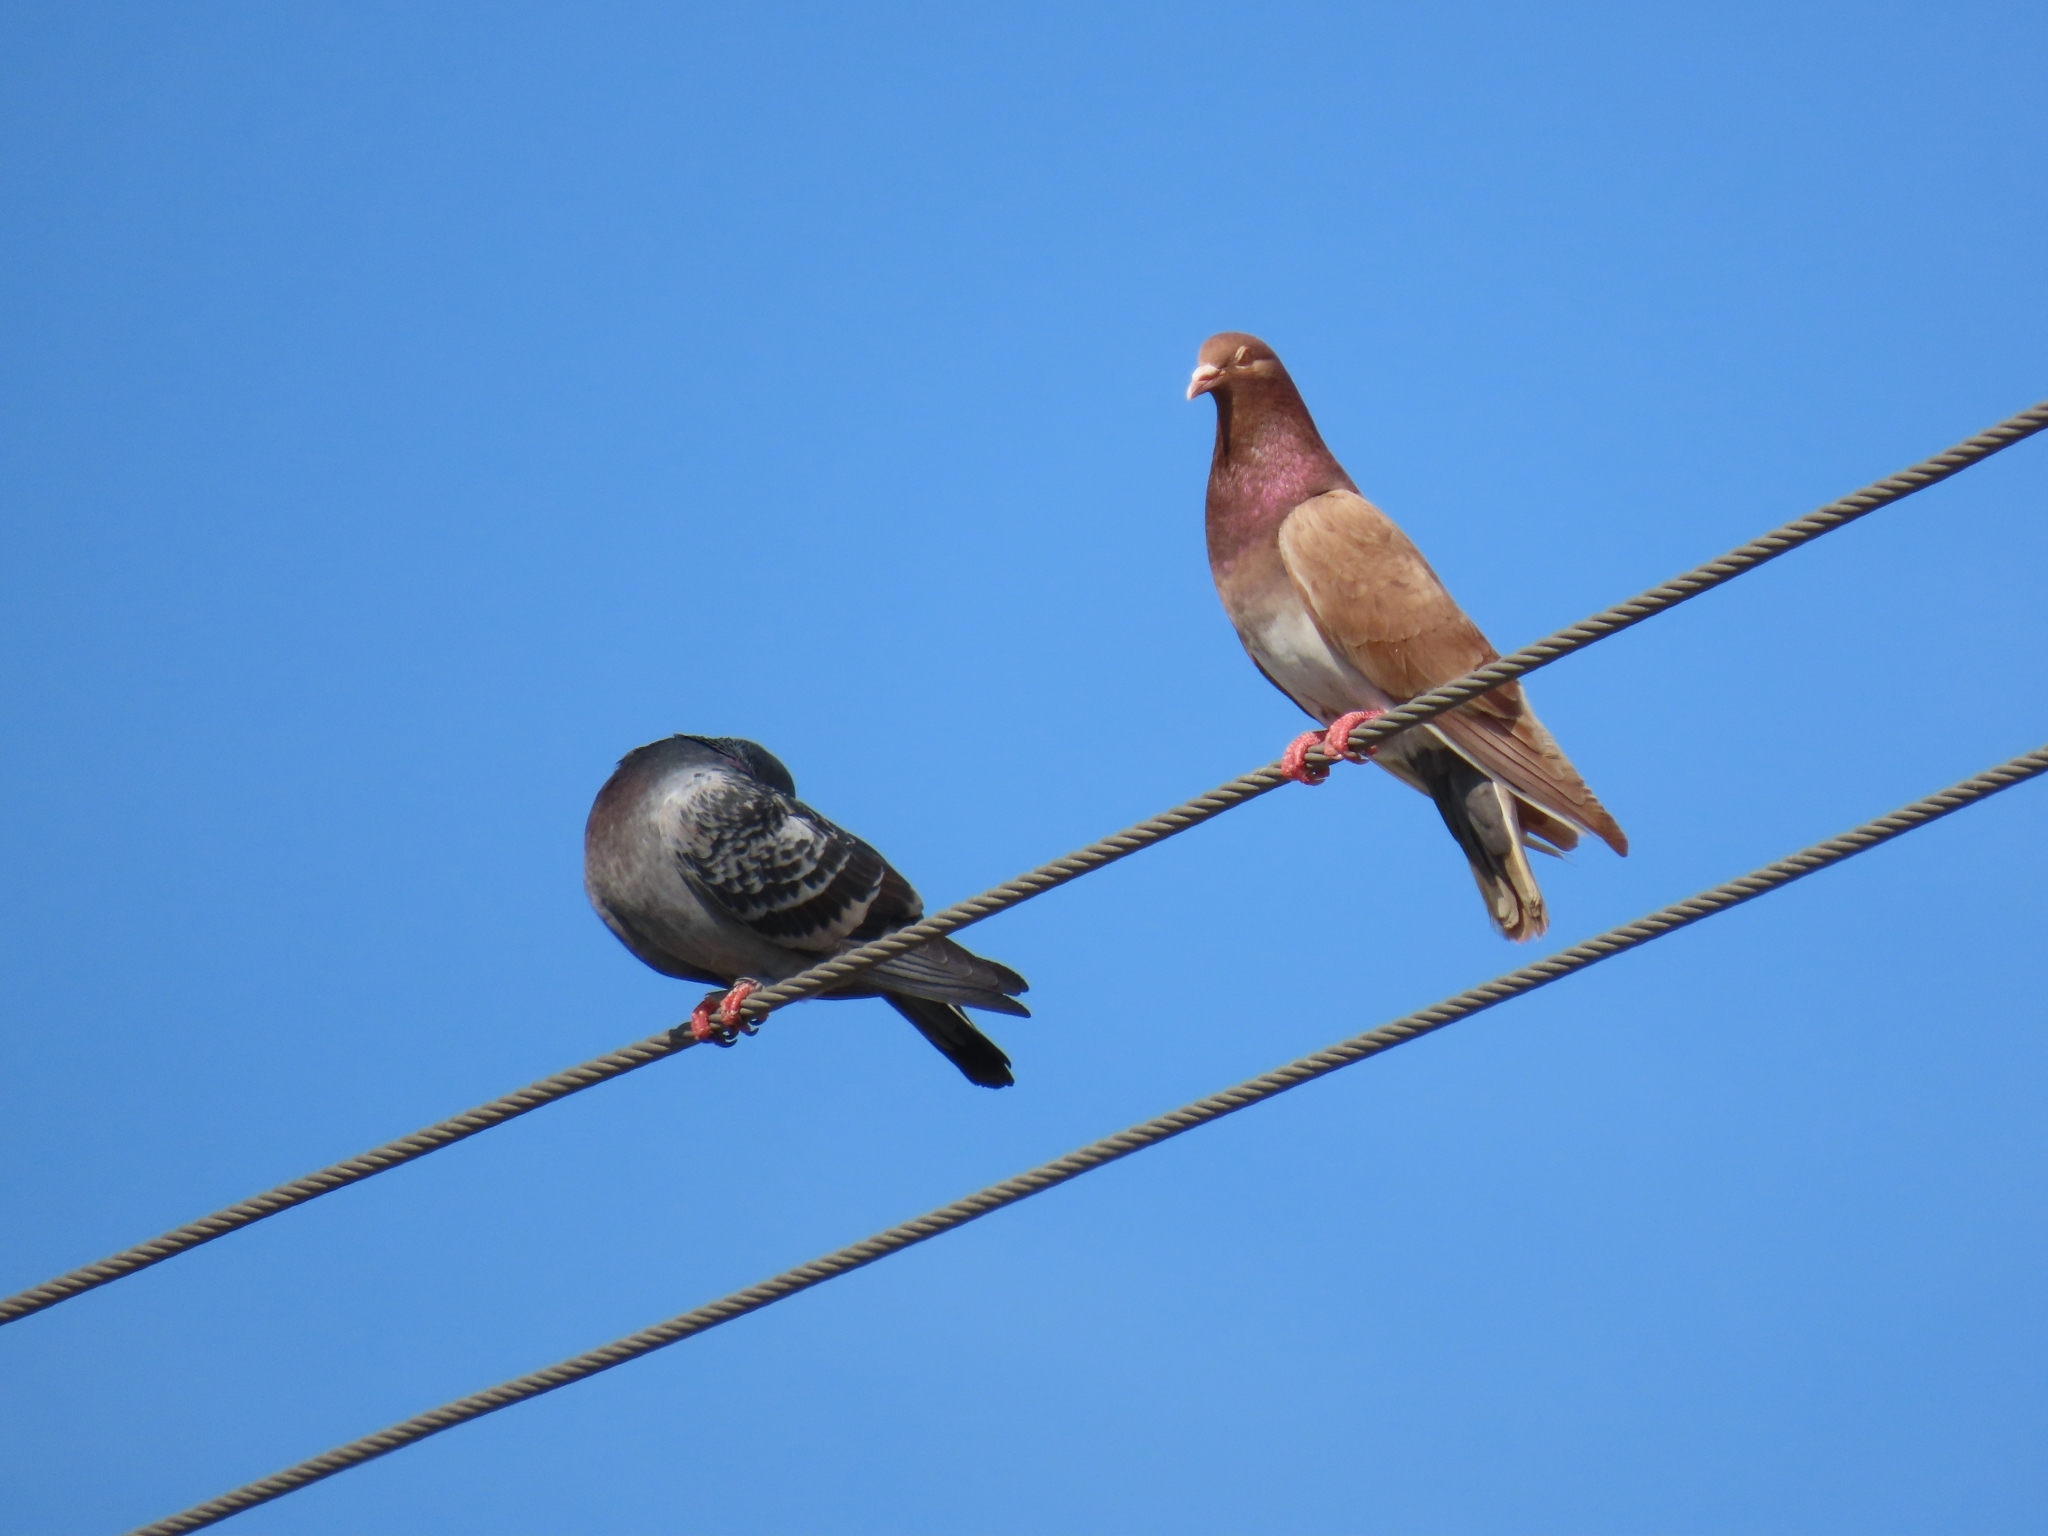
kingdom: Animalia
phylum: Chordata
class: Aves
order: Columbiformes
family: Columbidae
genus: Columba
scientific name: Columba livia
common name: Rock pigeon
